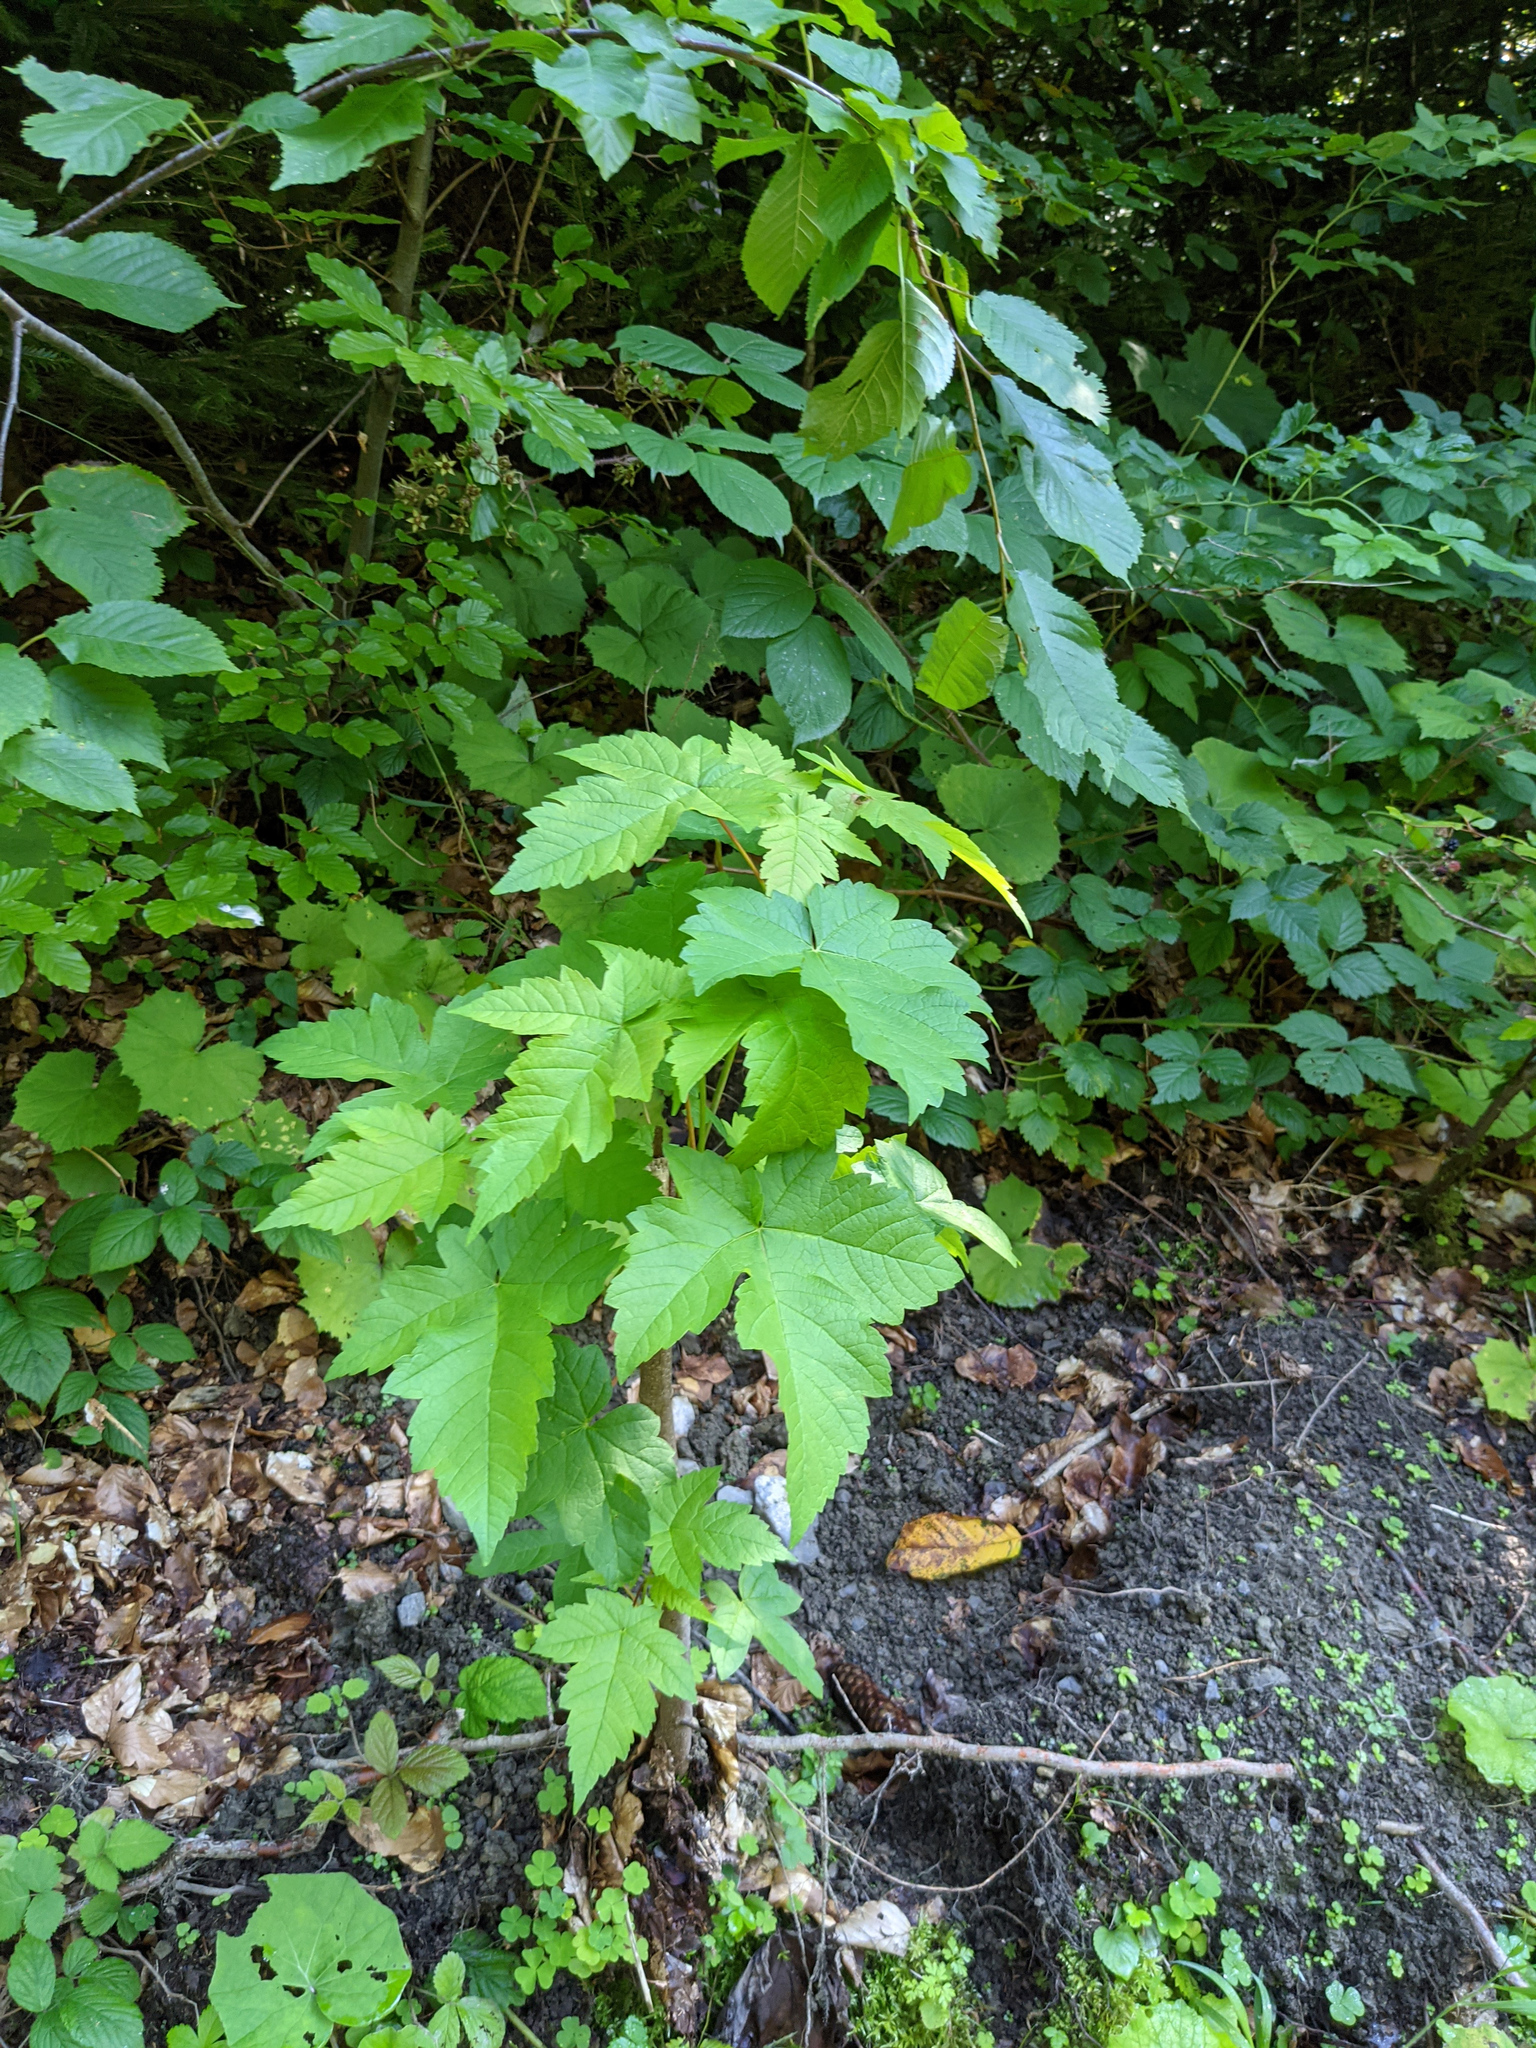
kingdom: Plantae
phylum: Tracheophyta
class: Magnoliopsida
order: Sapindales
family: Sapindaceae
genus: Acer
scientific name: Acer pseudoplatanus
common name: Sycamore
